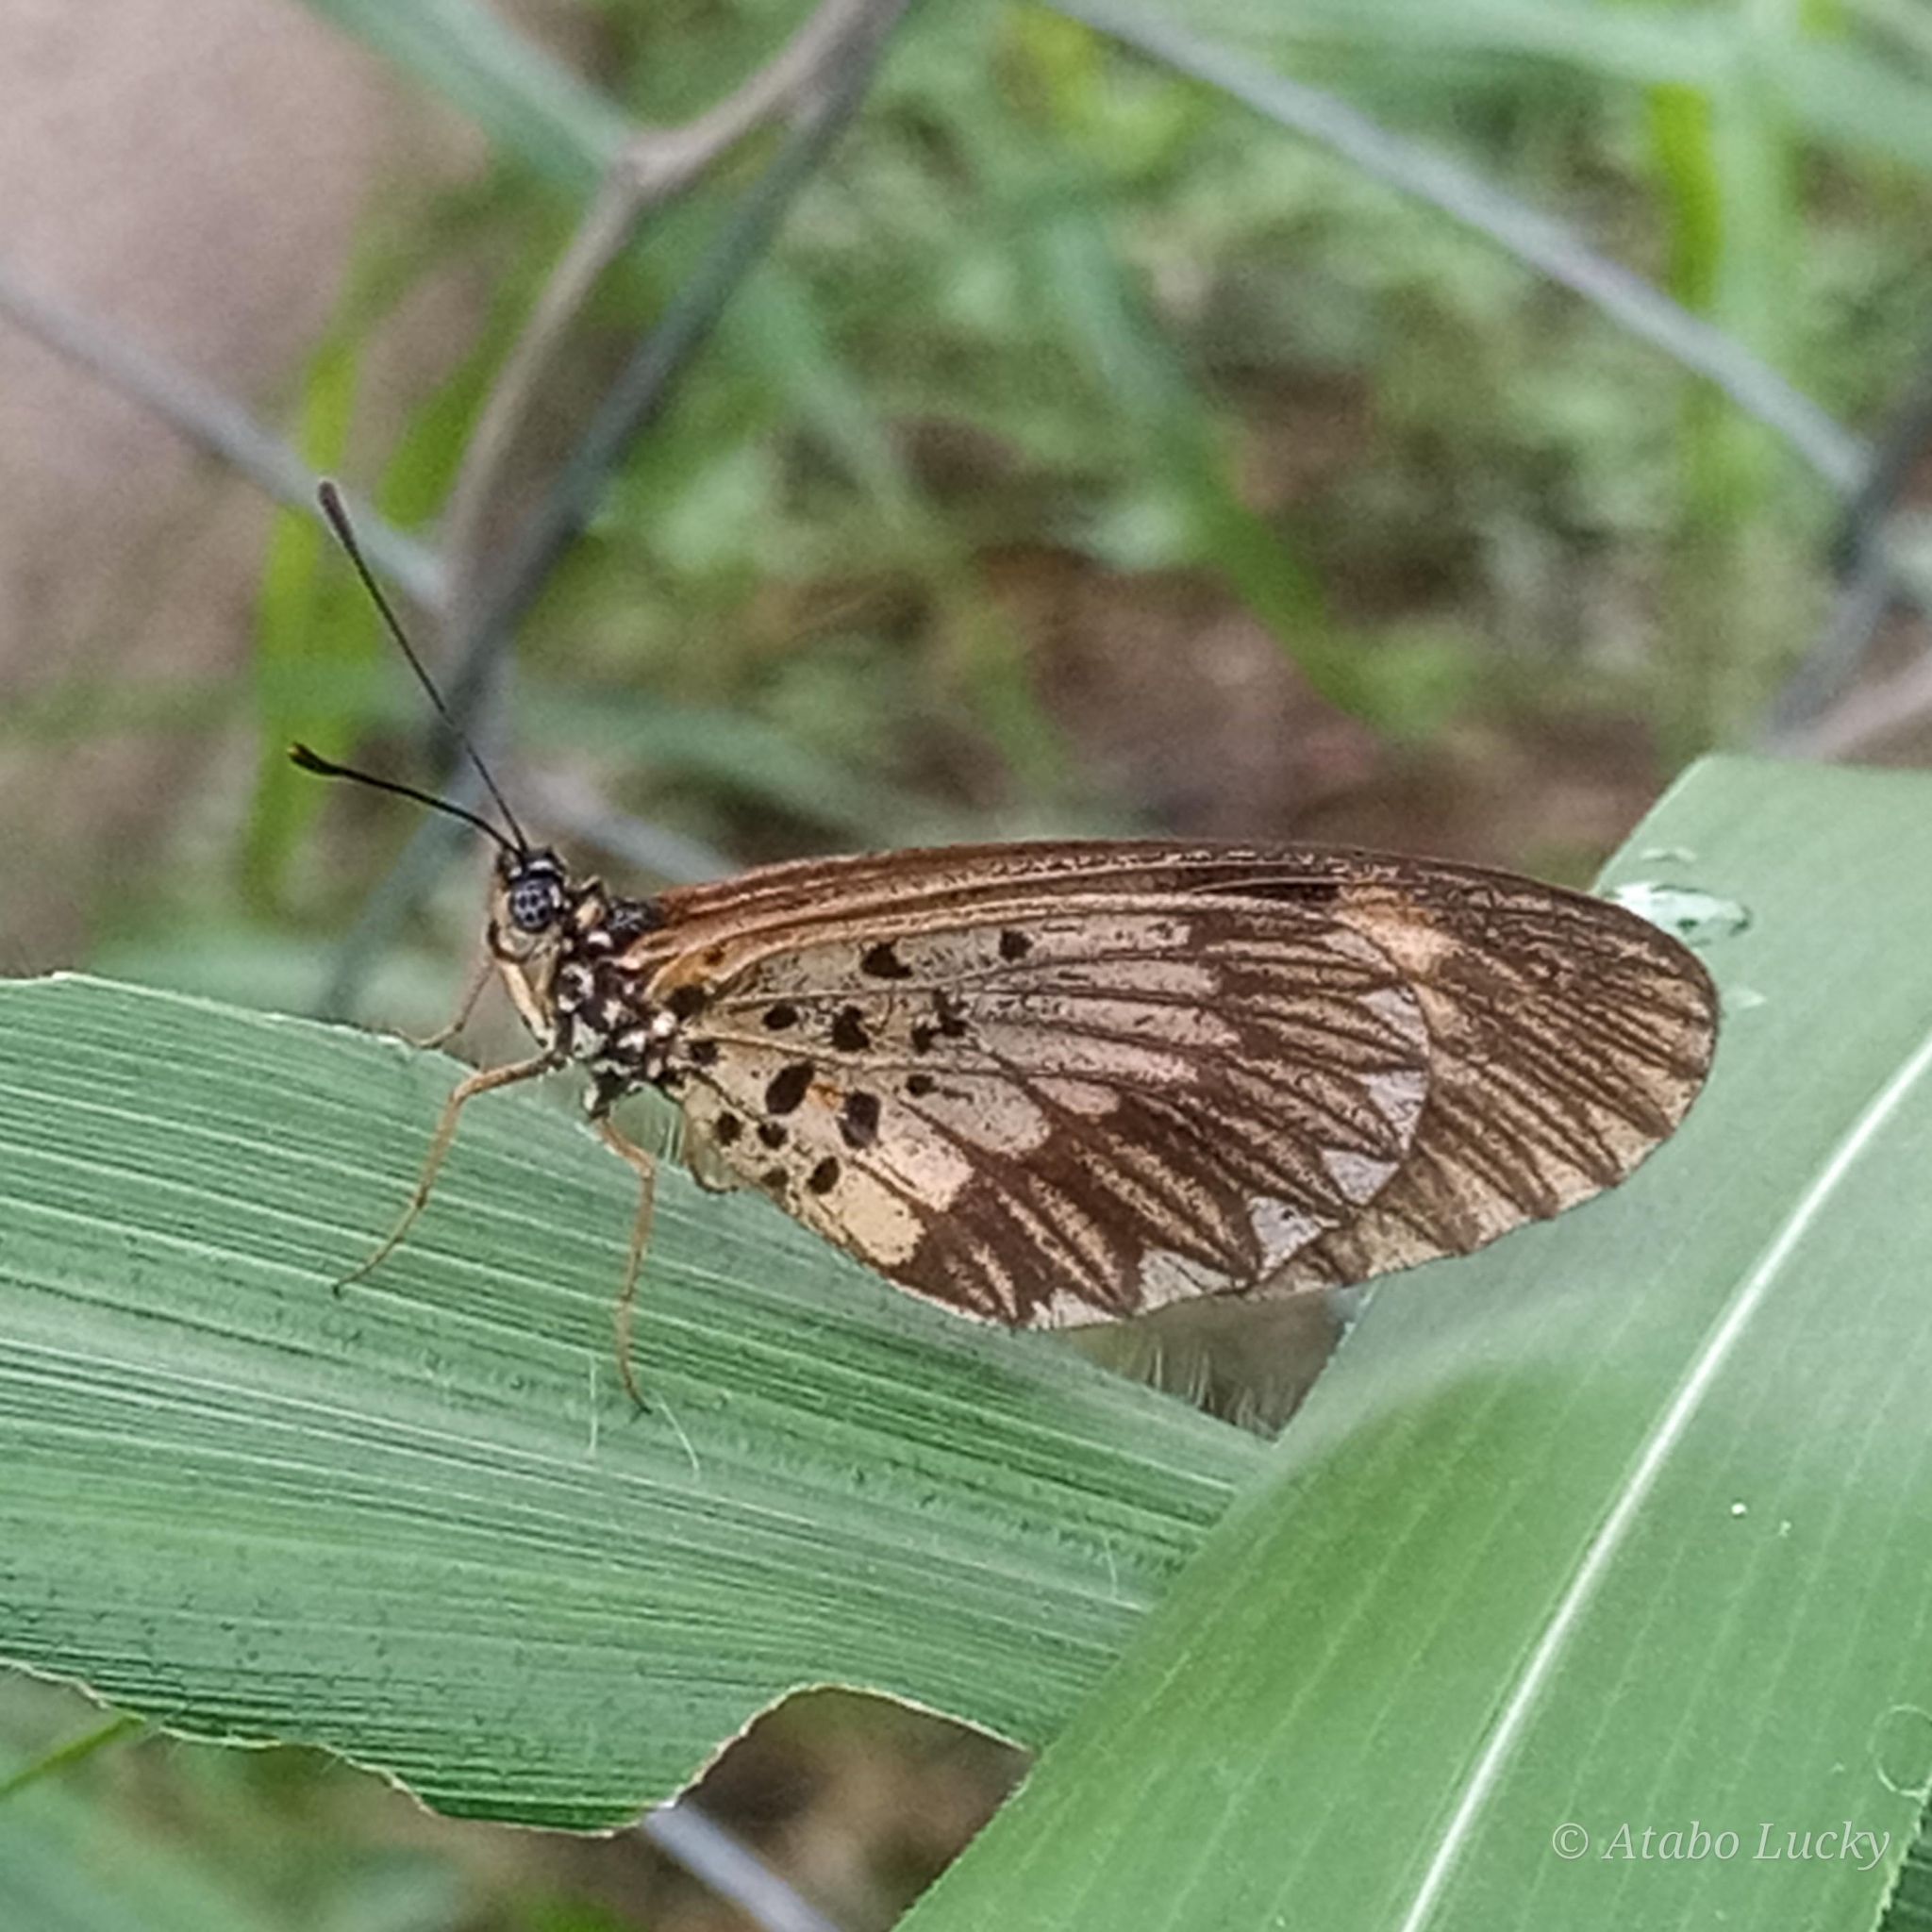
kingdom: Animalia
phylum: Arthropoda
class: Insecta
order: Lepidoptera
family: Nymphalidae
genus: Acraea
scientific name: Acraea Telchinia bonasia
